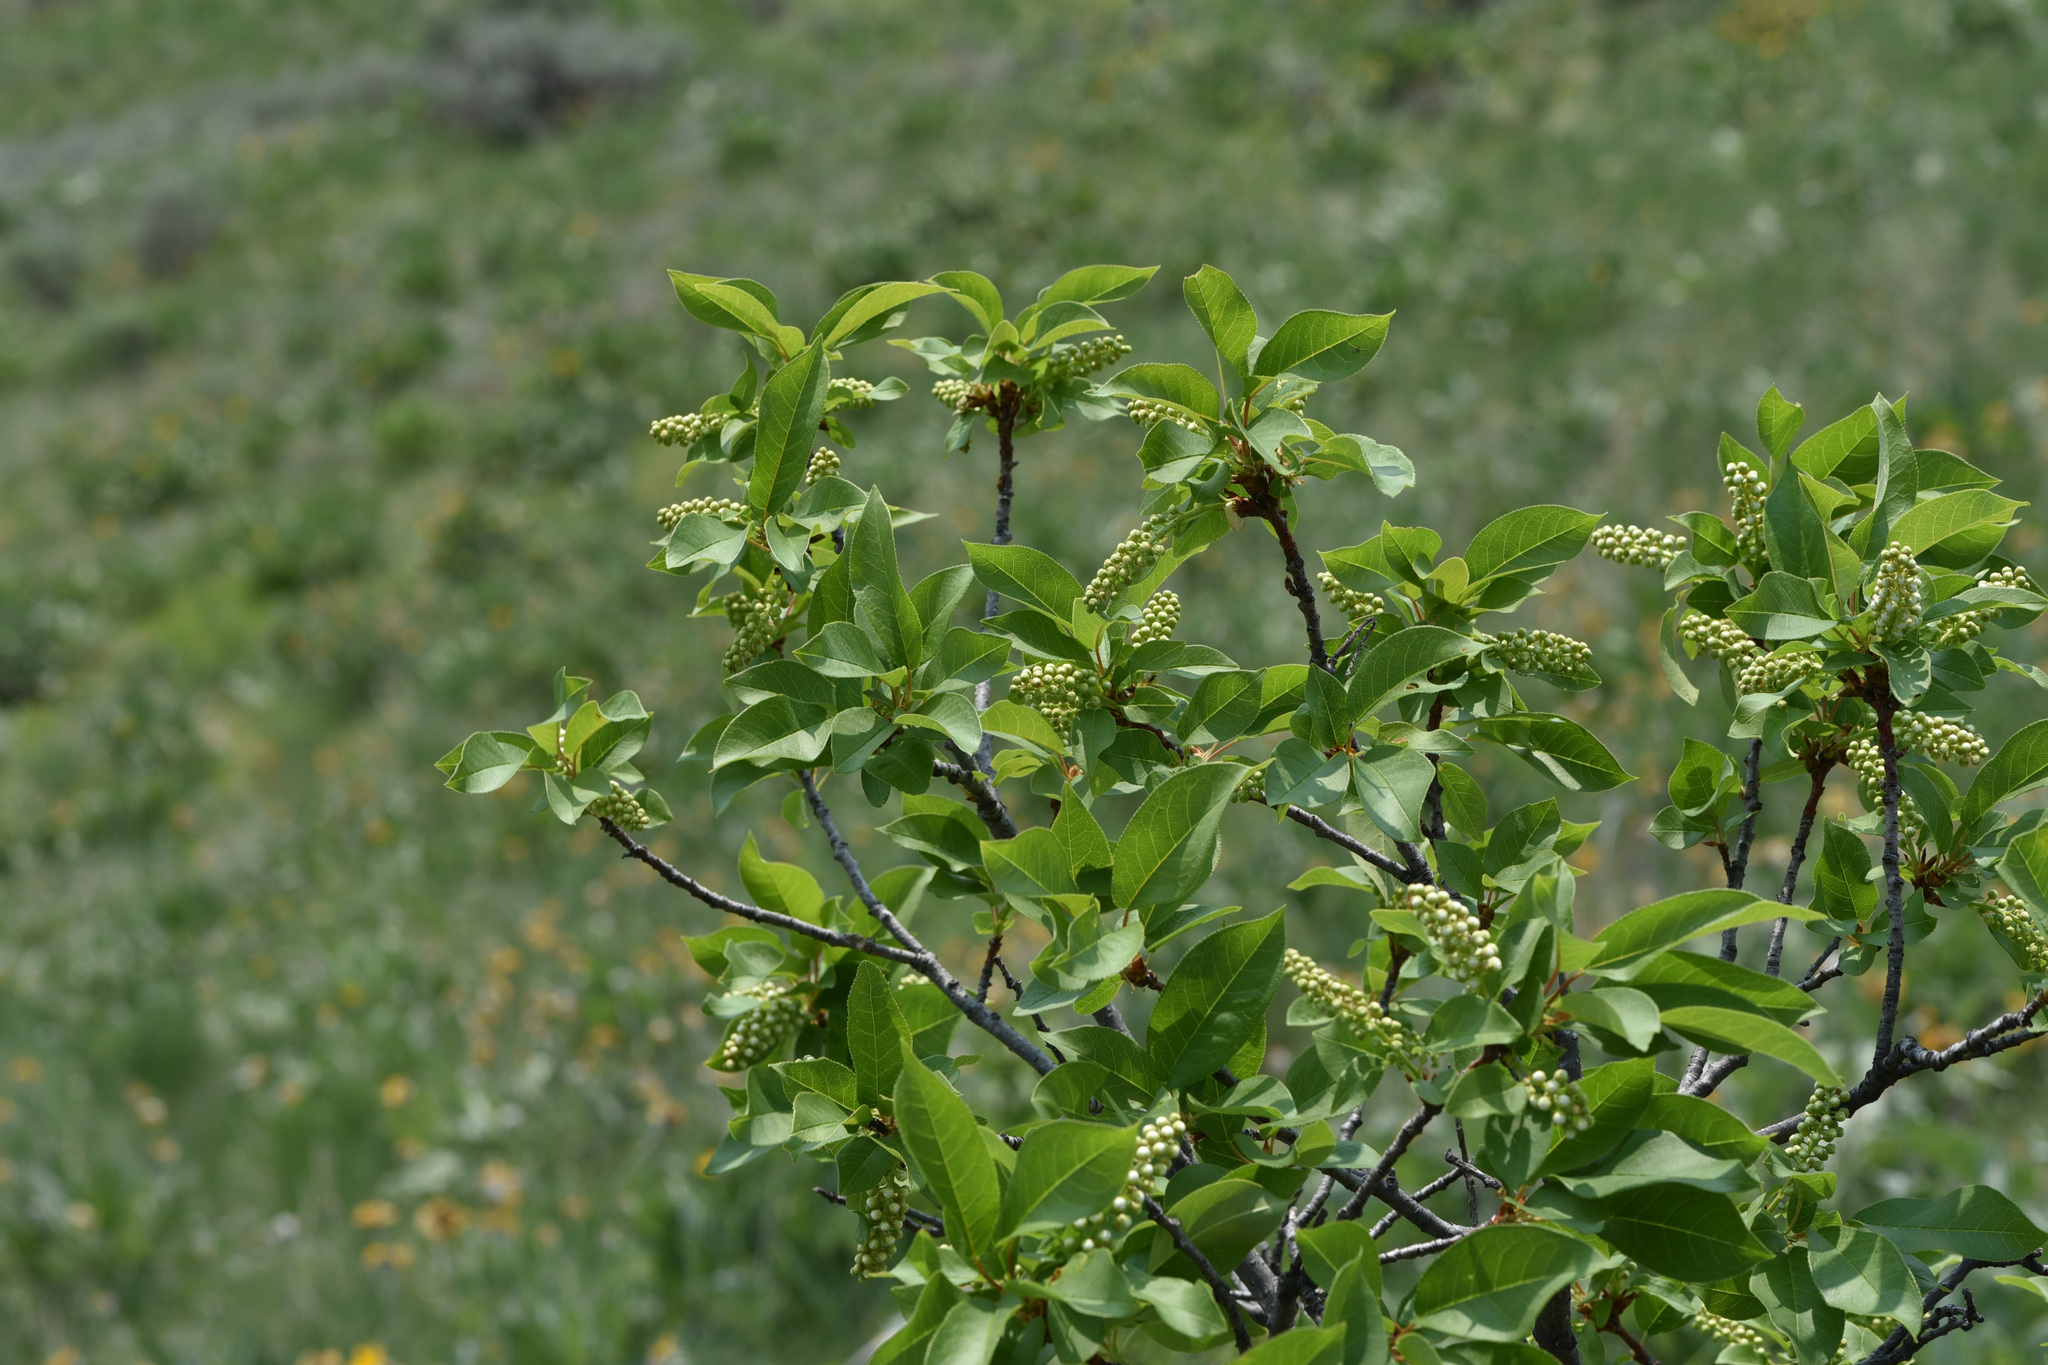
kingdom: Plantae
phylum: Tracheophyta
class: Magnoliopsida
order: Rosales
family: Rosaceae
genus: Prunus
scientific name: Prunus virginiana
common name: Chokecherry
